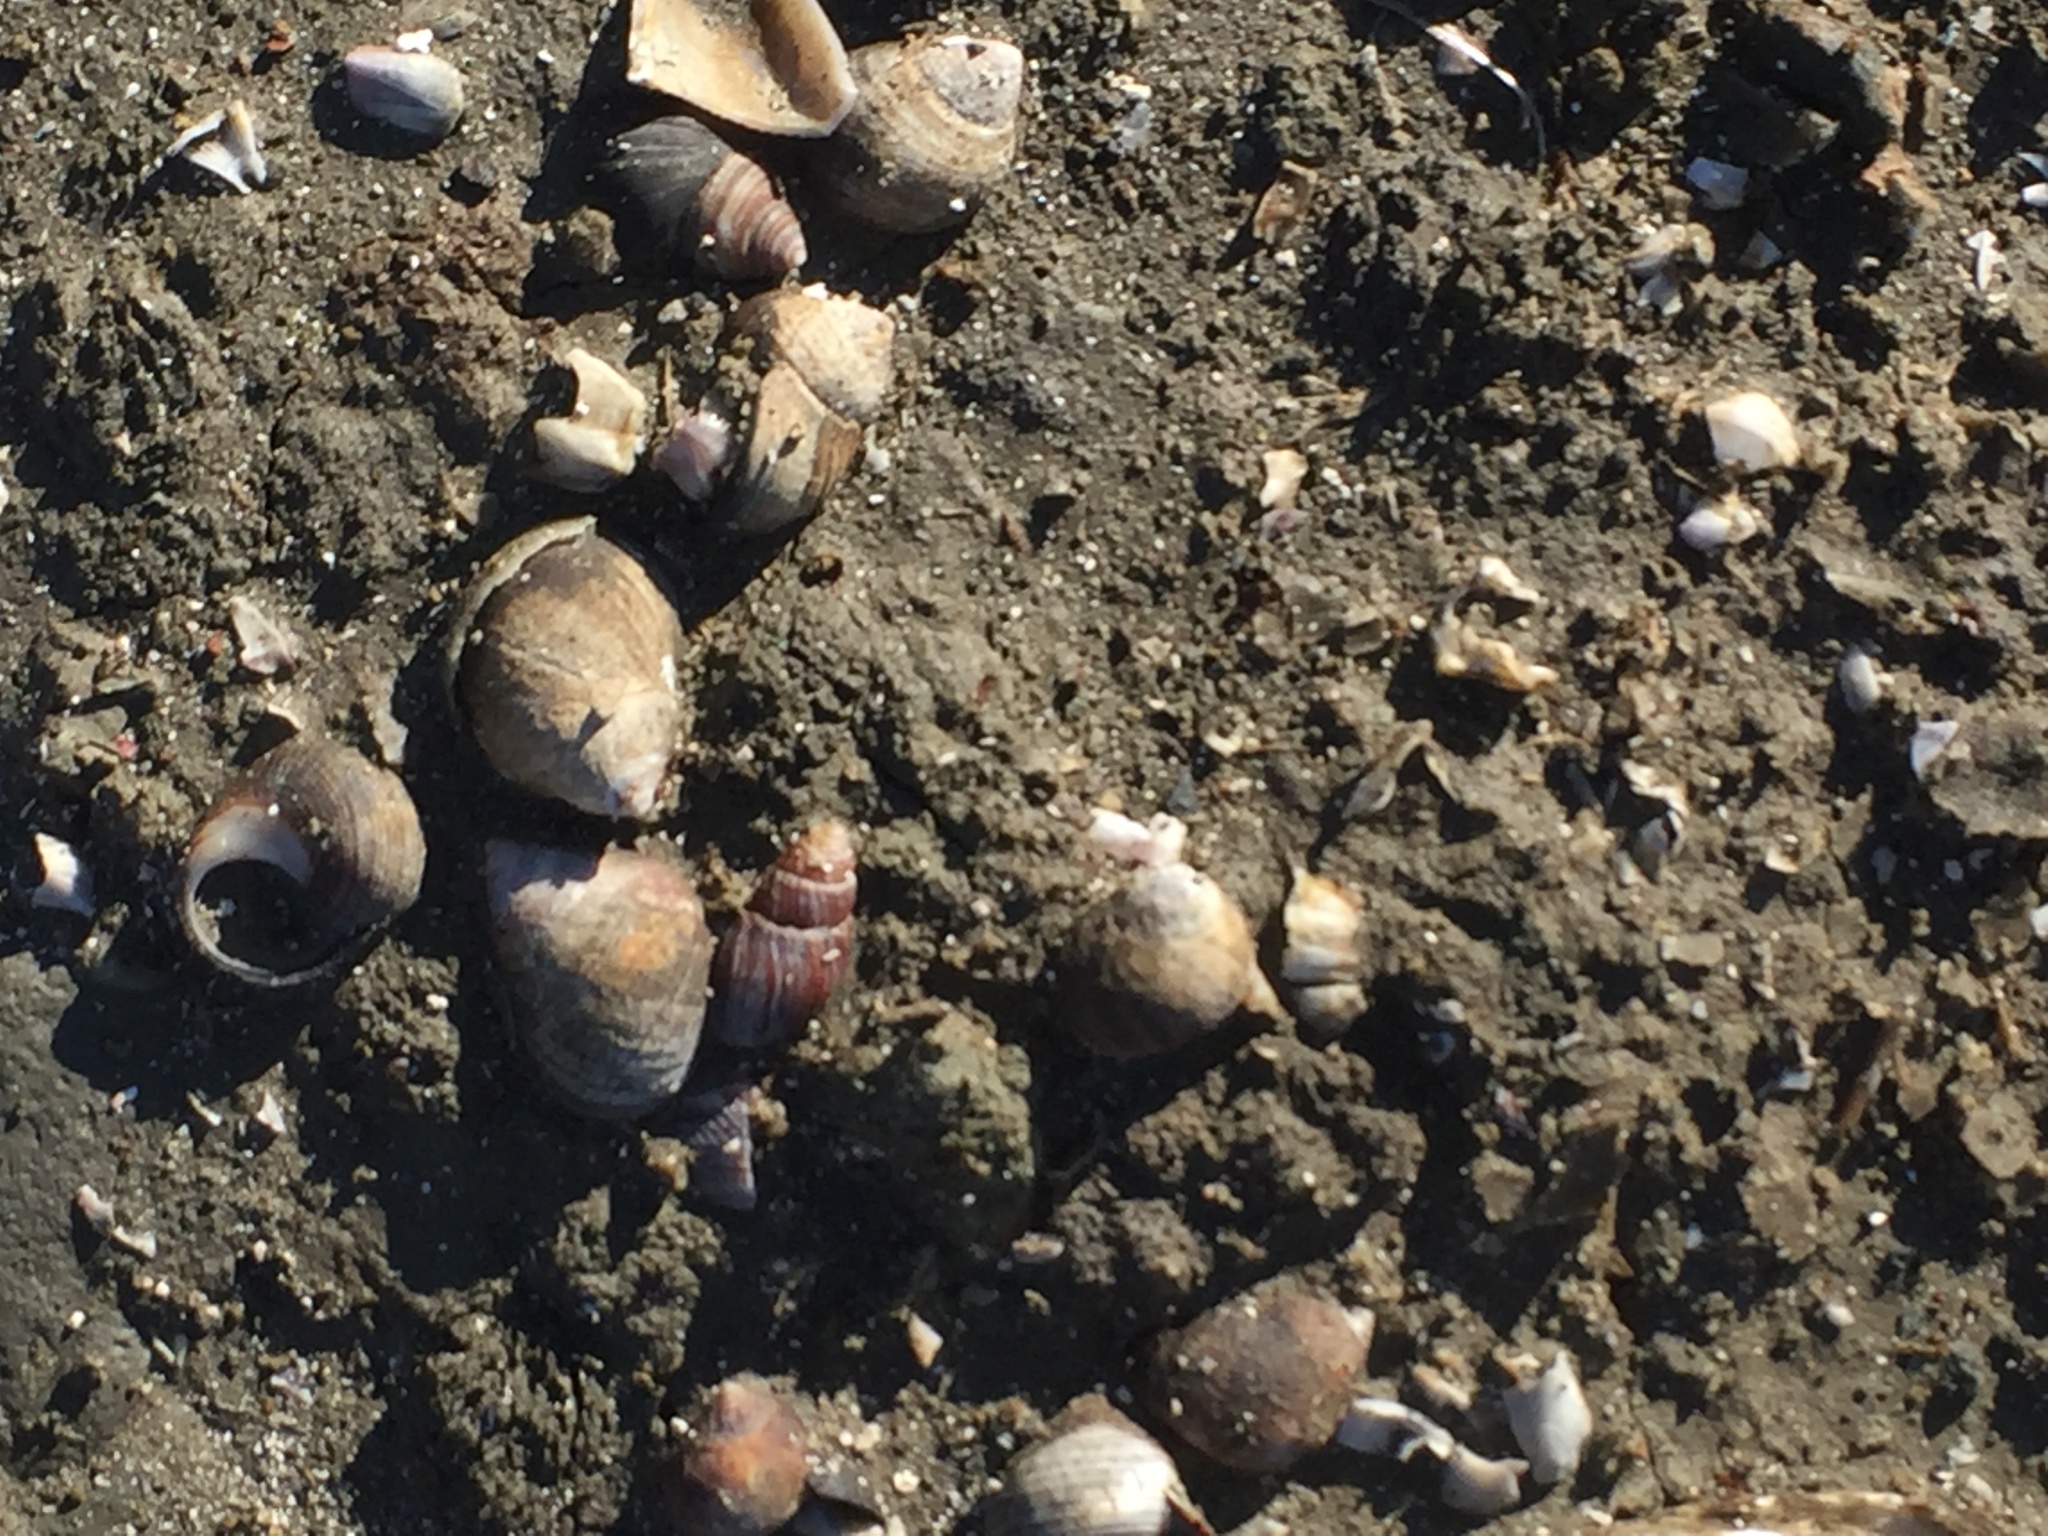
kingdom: Animalia
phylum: Mollusca
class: Gastropoda
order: Littorinimorpha
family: Littorinidae
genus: Littorina
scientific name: Littorina littorea
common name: Common periwinkle
